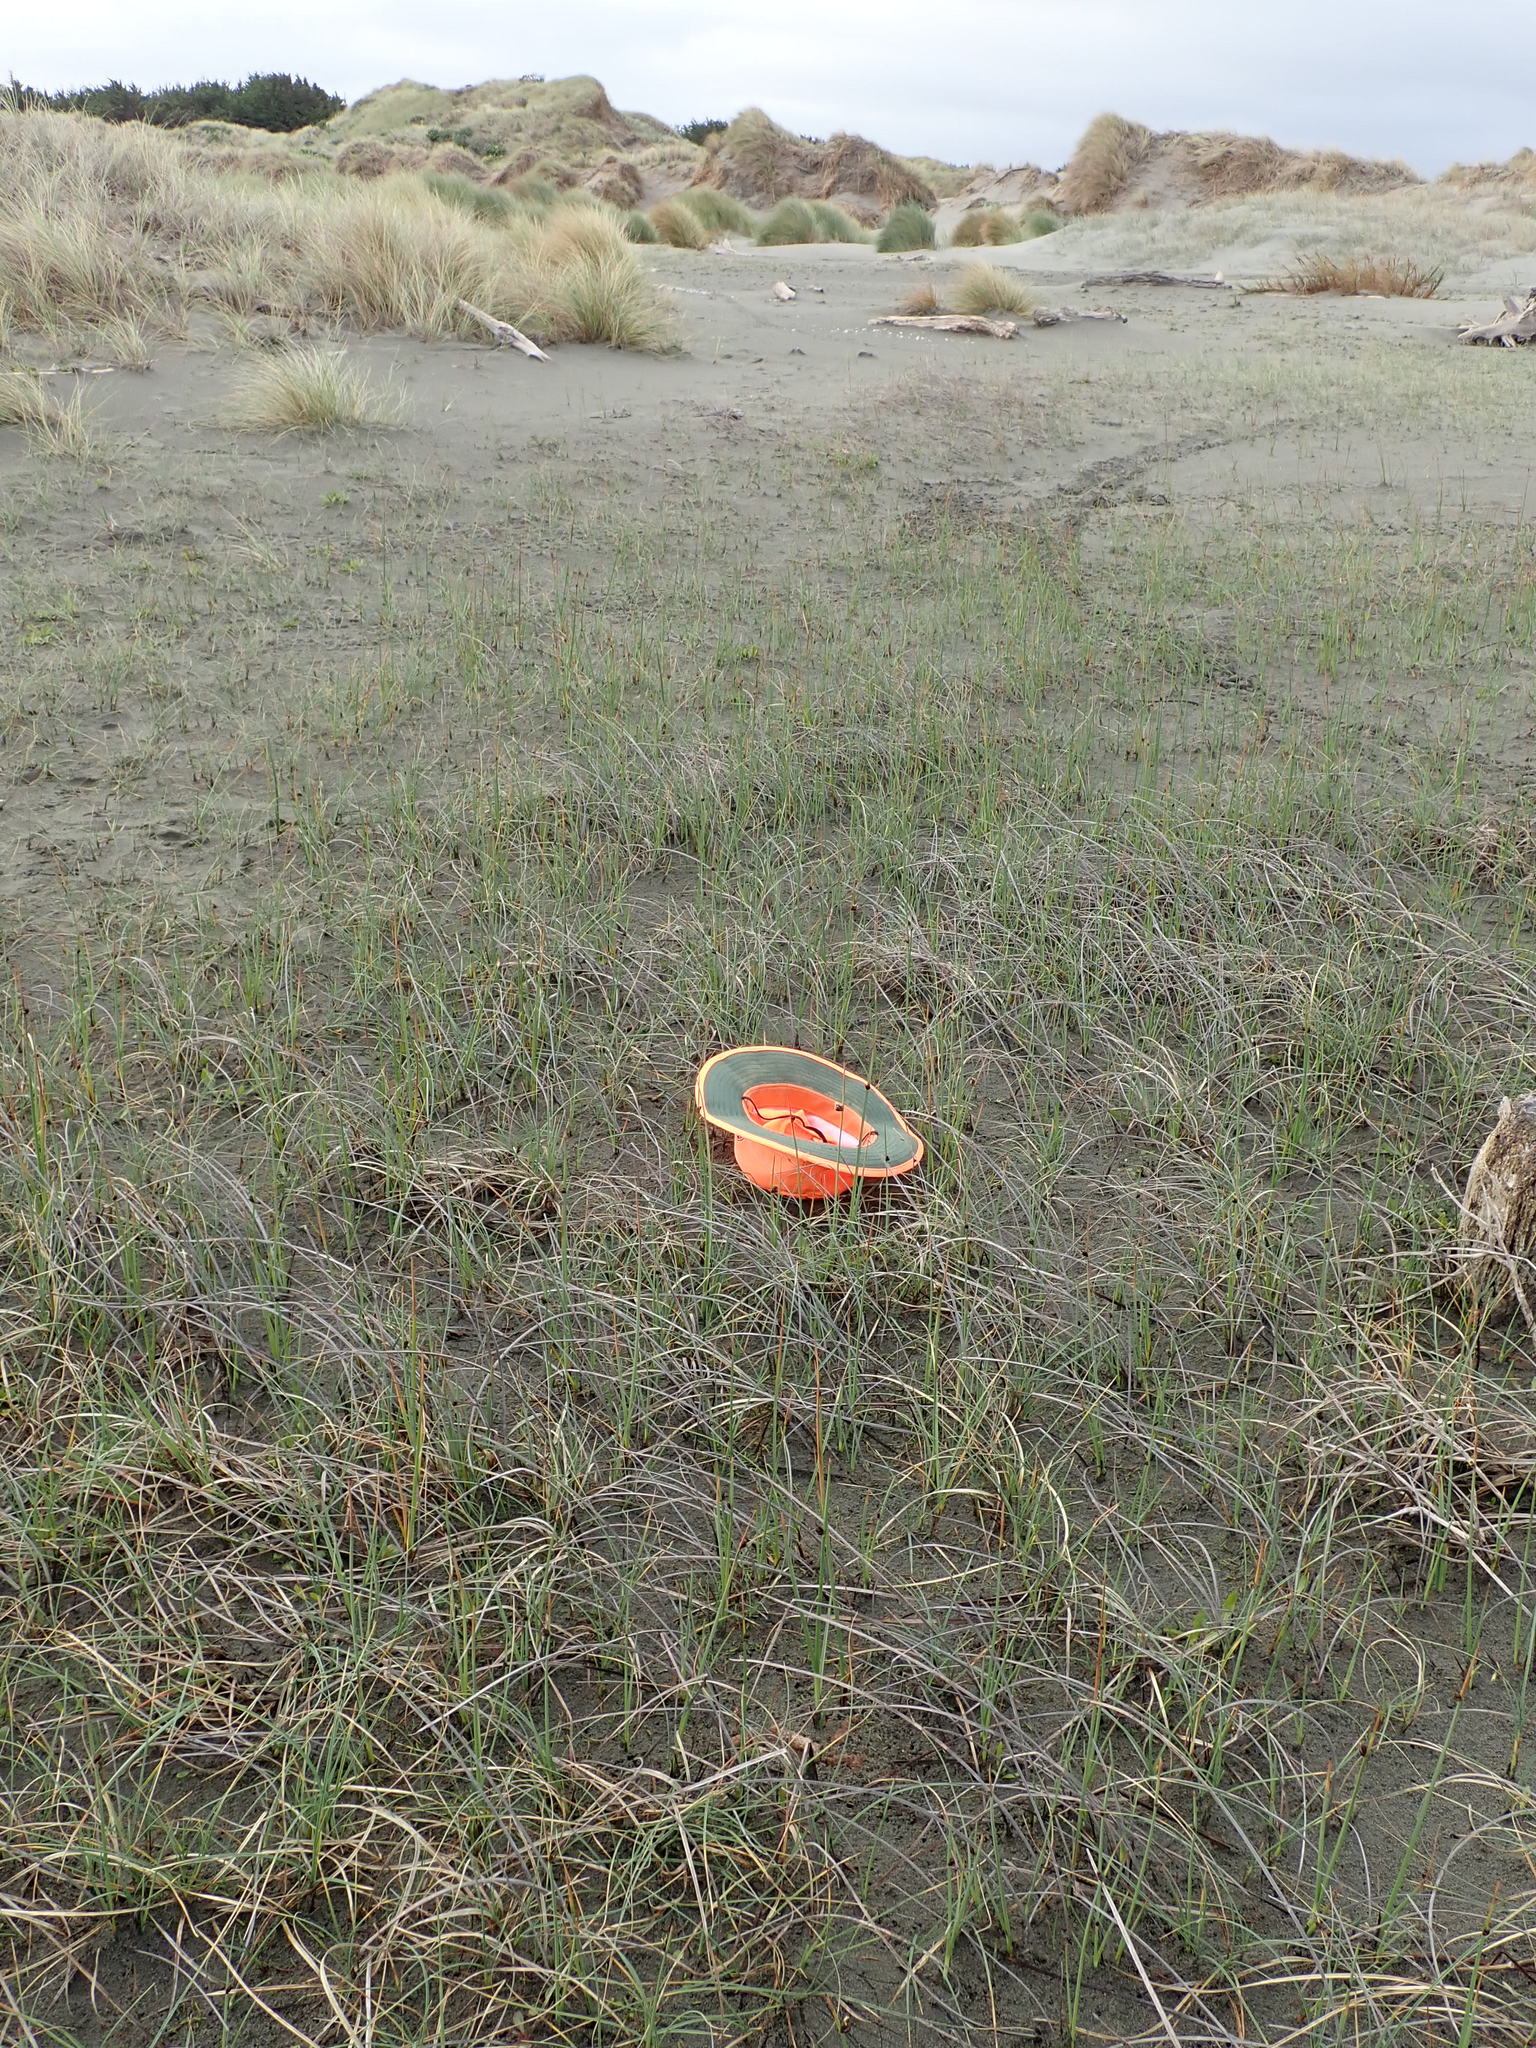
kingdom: Plantae
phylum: Tracheophyta
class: Magnoliopsida
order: Apiales
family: Apiaceae
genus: Lilaeopsis
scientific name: Lilaeopsis novae-zelandiae
